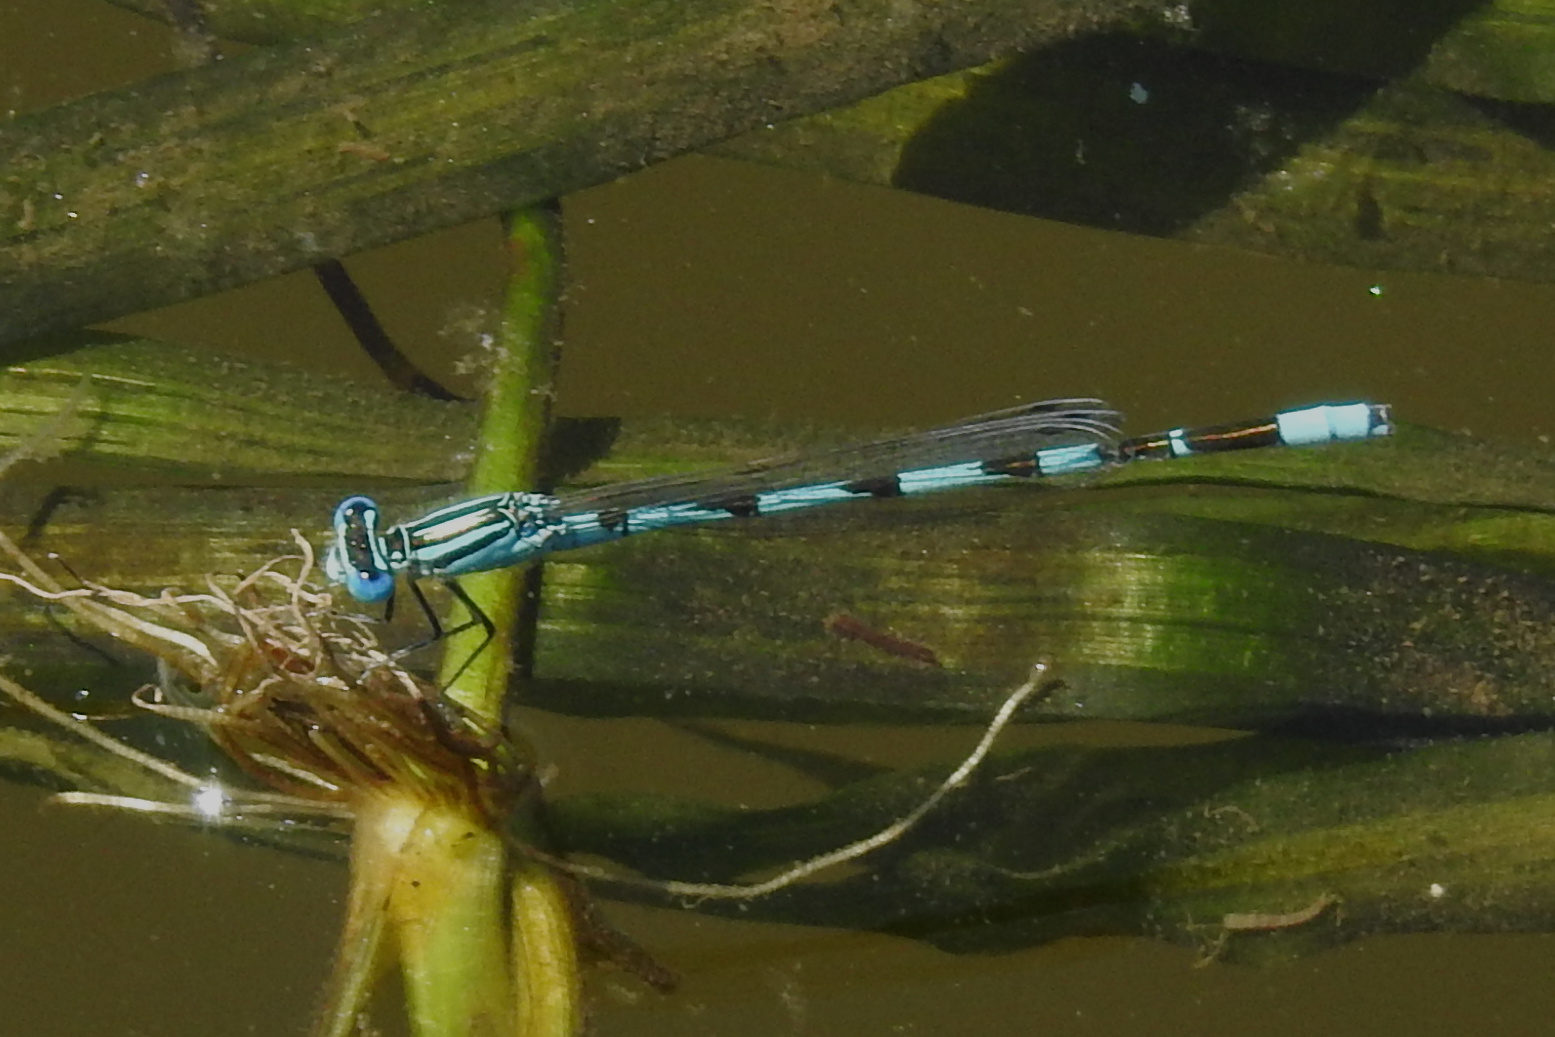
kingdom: Animalia
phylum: Arthropoda
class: Insecta
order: Odonata
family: Coenagrionidae
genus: Enallagma
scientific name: Enallagma durum
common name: Big bluet
